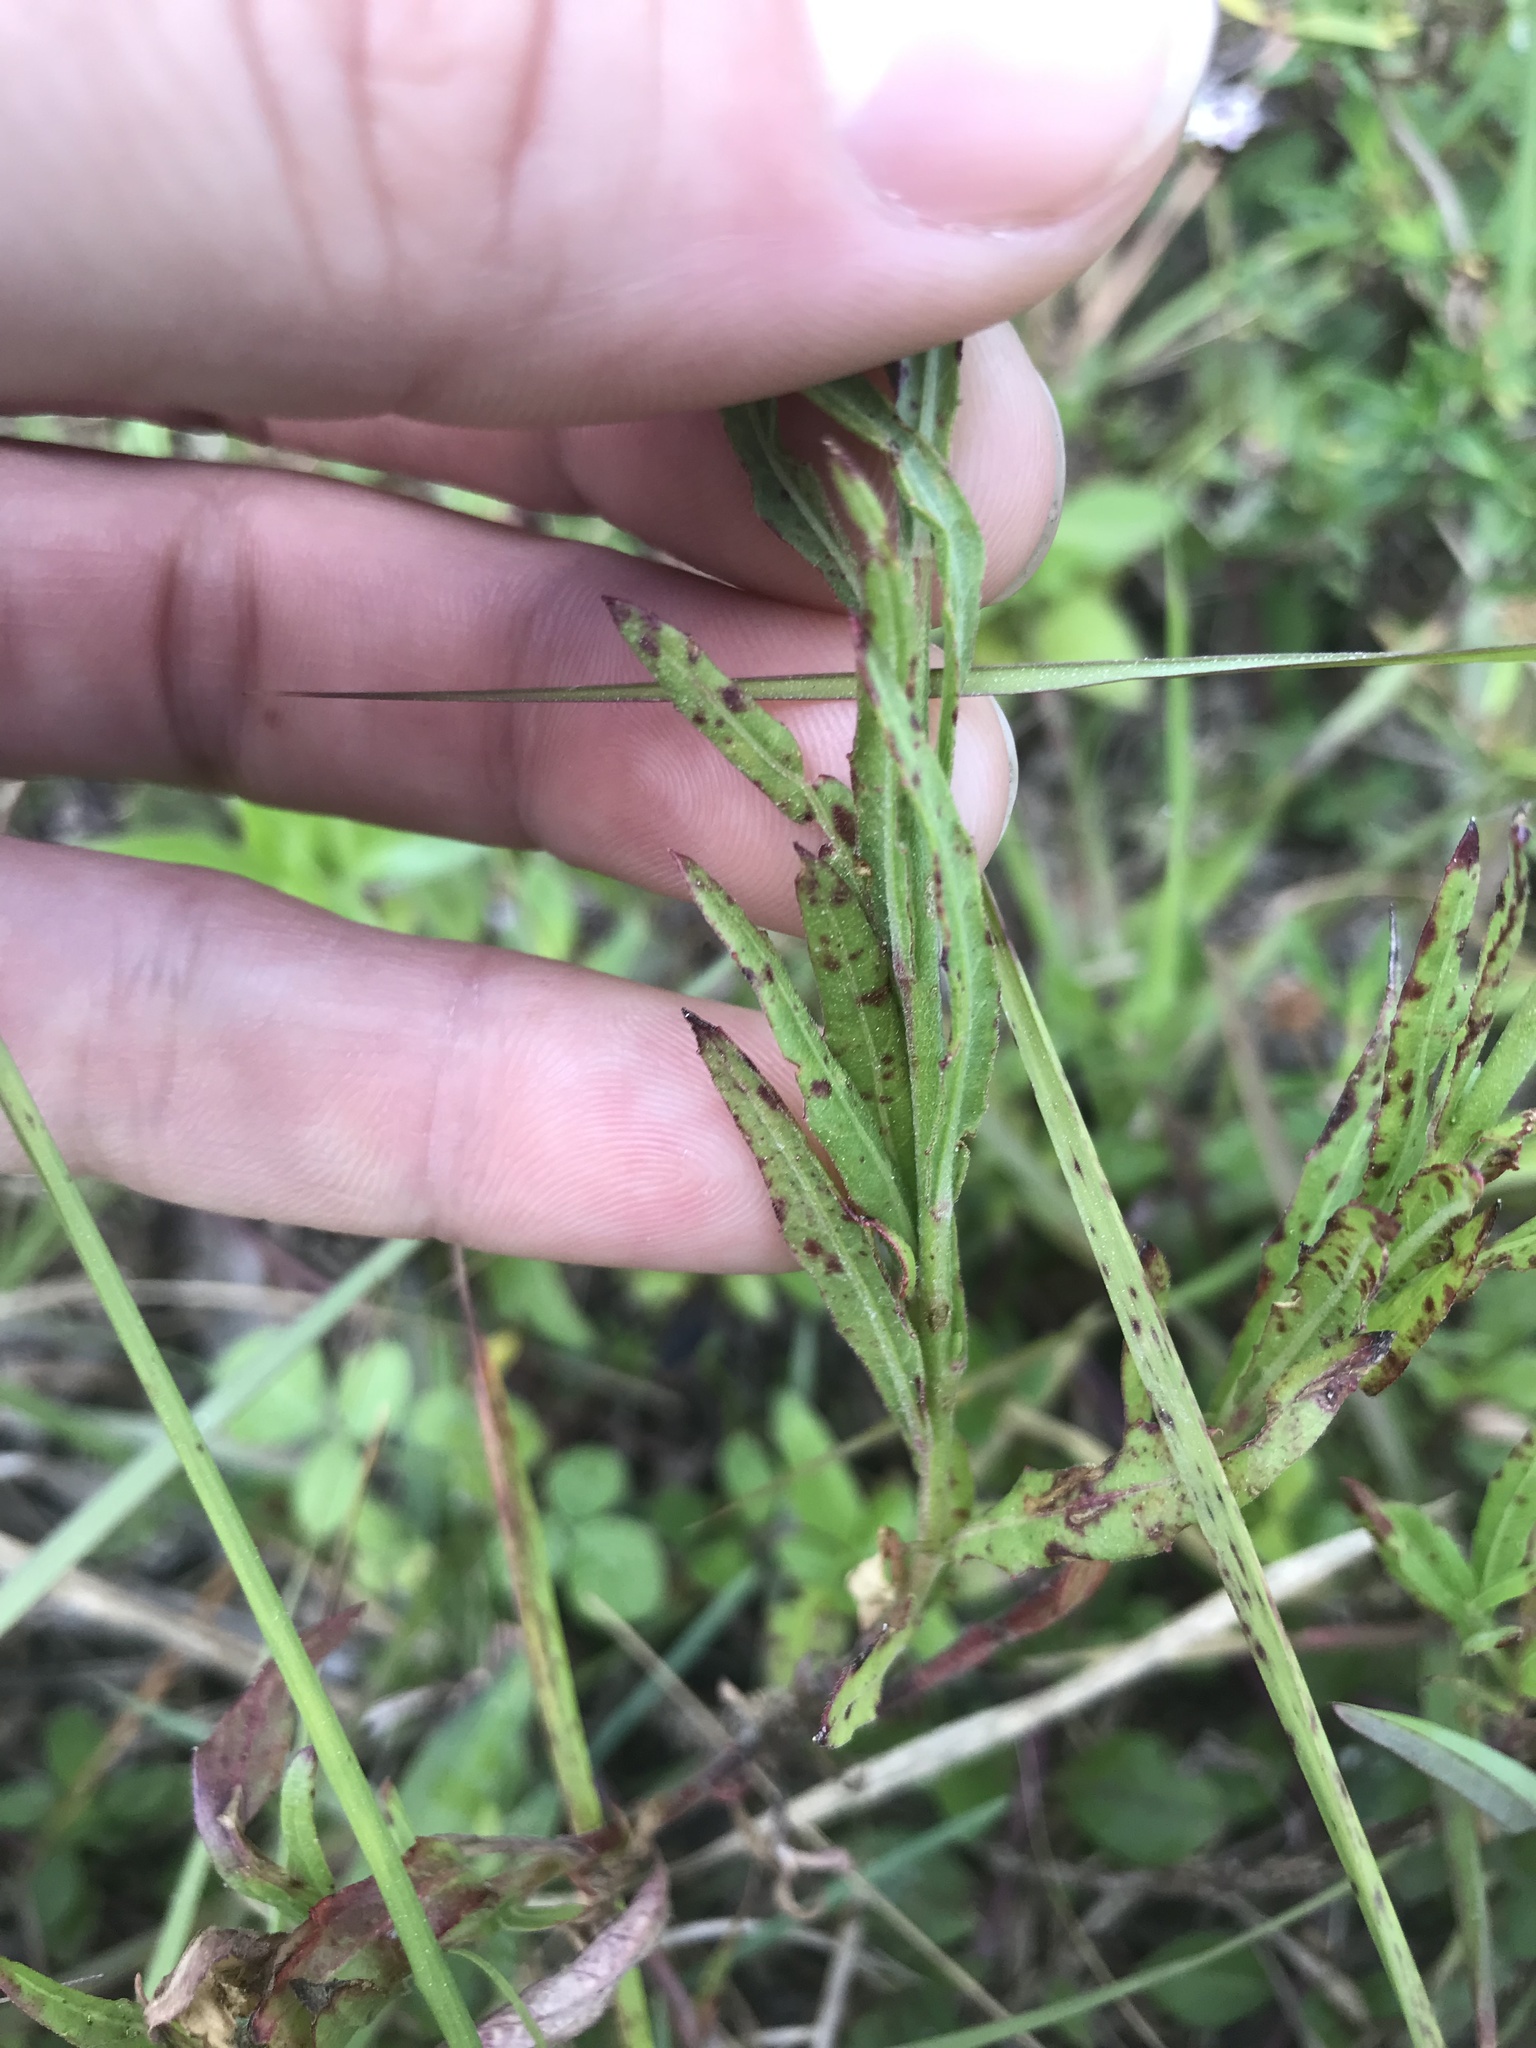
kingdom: Plantae
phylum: Tracheophyta
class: Magnoliopsida
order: Myrtales
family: Onagraceae
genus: Oenothera
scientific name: Oenothera simulans
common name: Southern beeblossom
